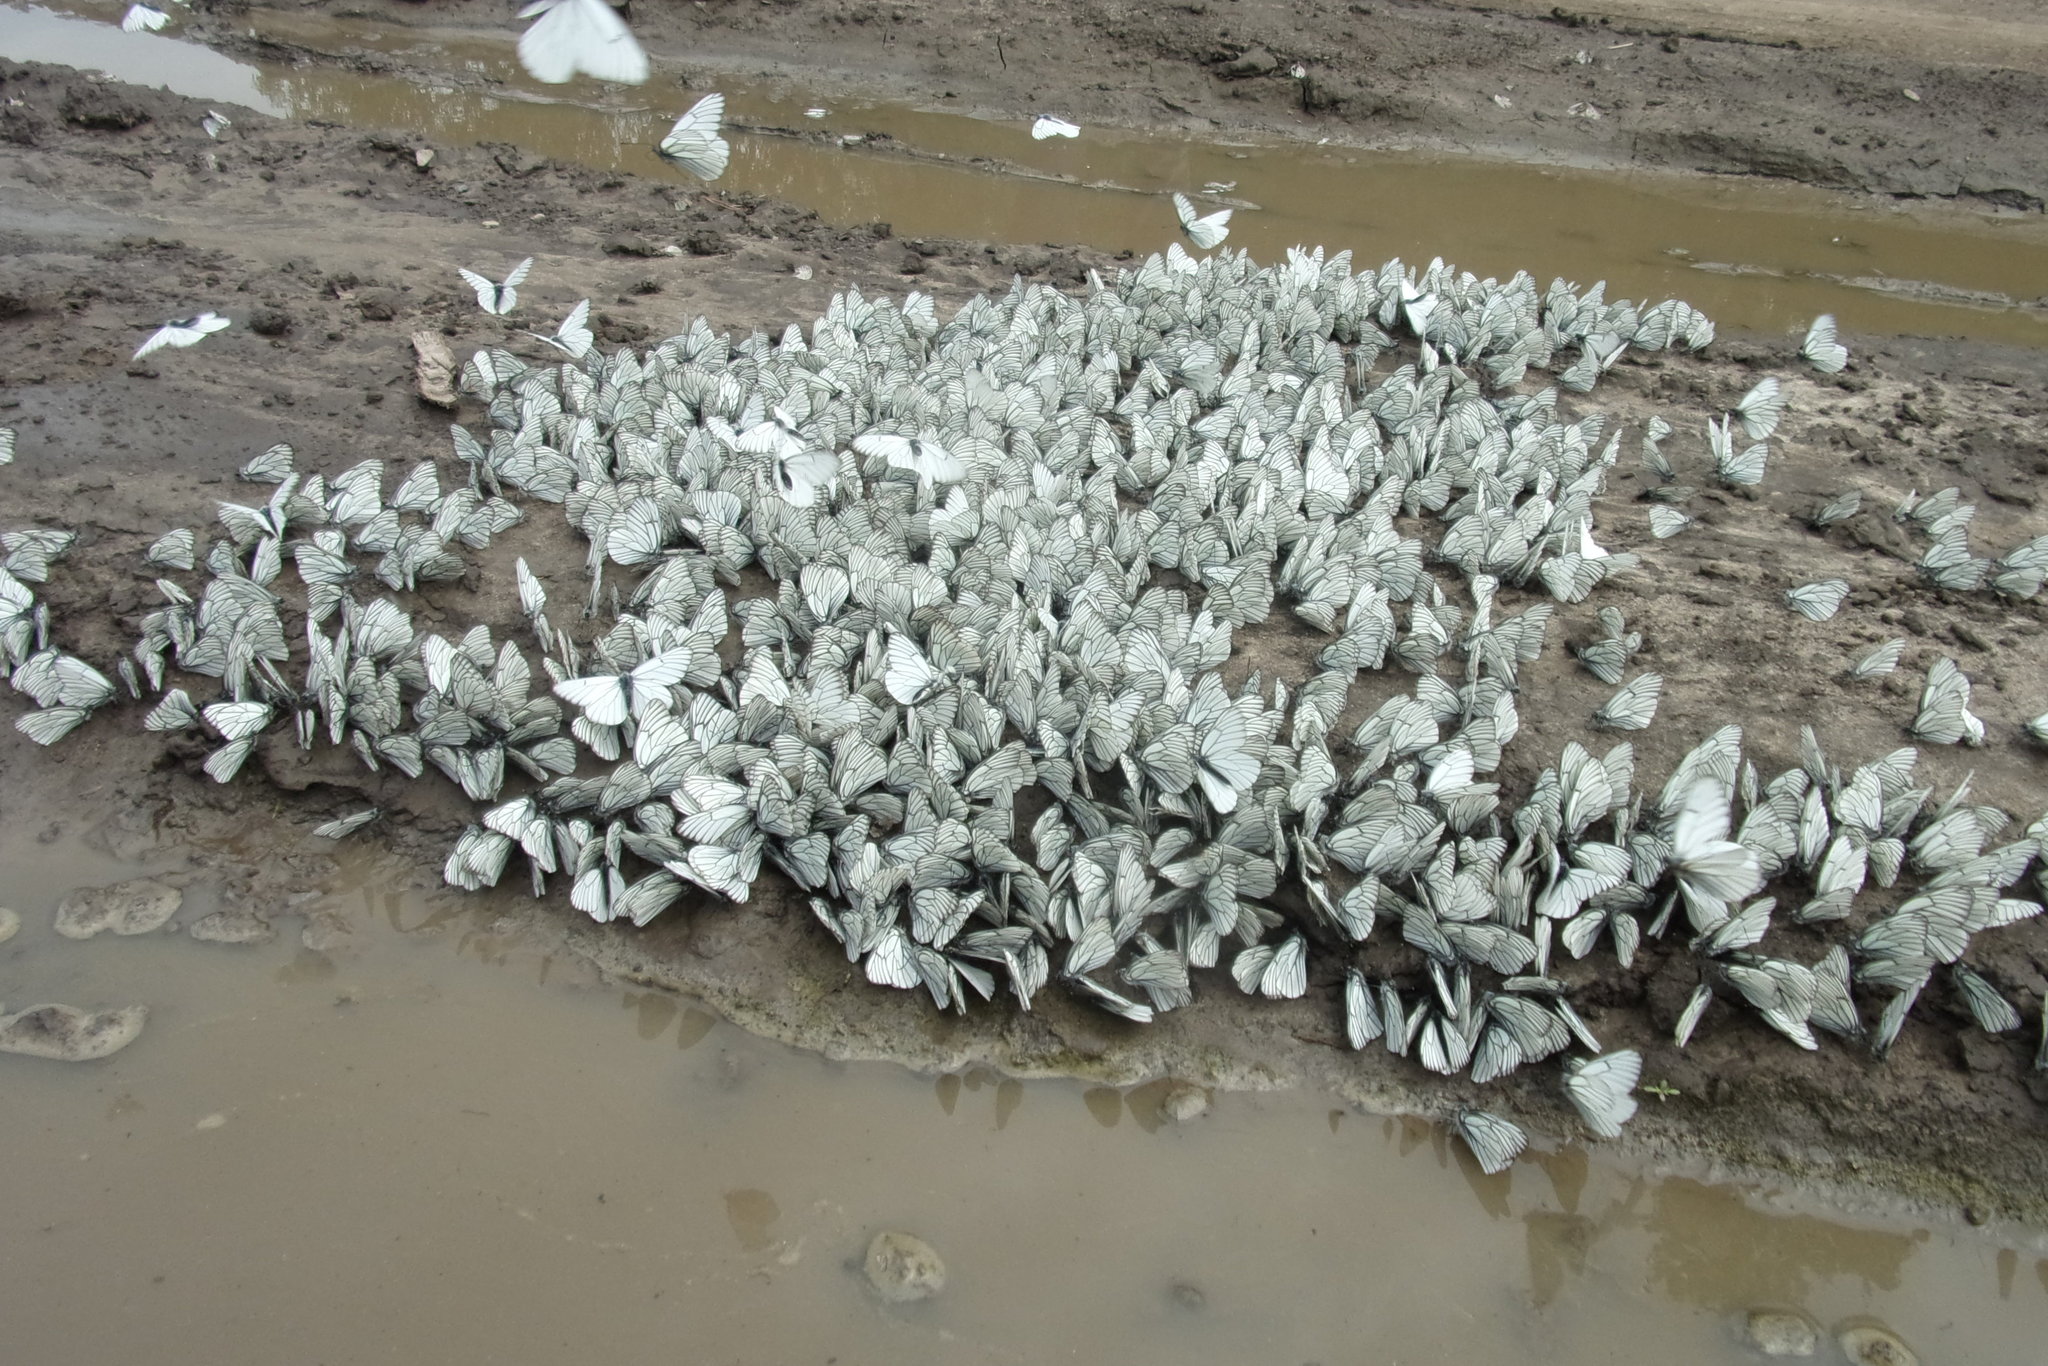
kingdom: Animalia
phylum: Arthropoda
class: Insecta
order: Lepidoptera
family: Pieridae
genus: Aporia
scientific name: Aporia crataegi
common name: Black-veined white
